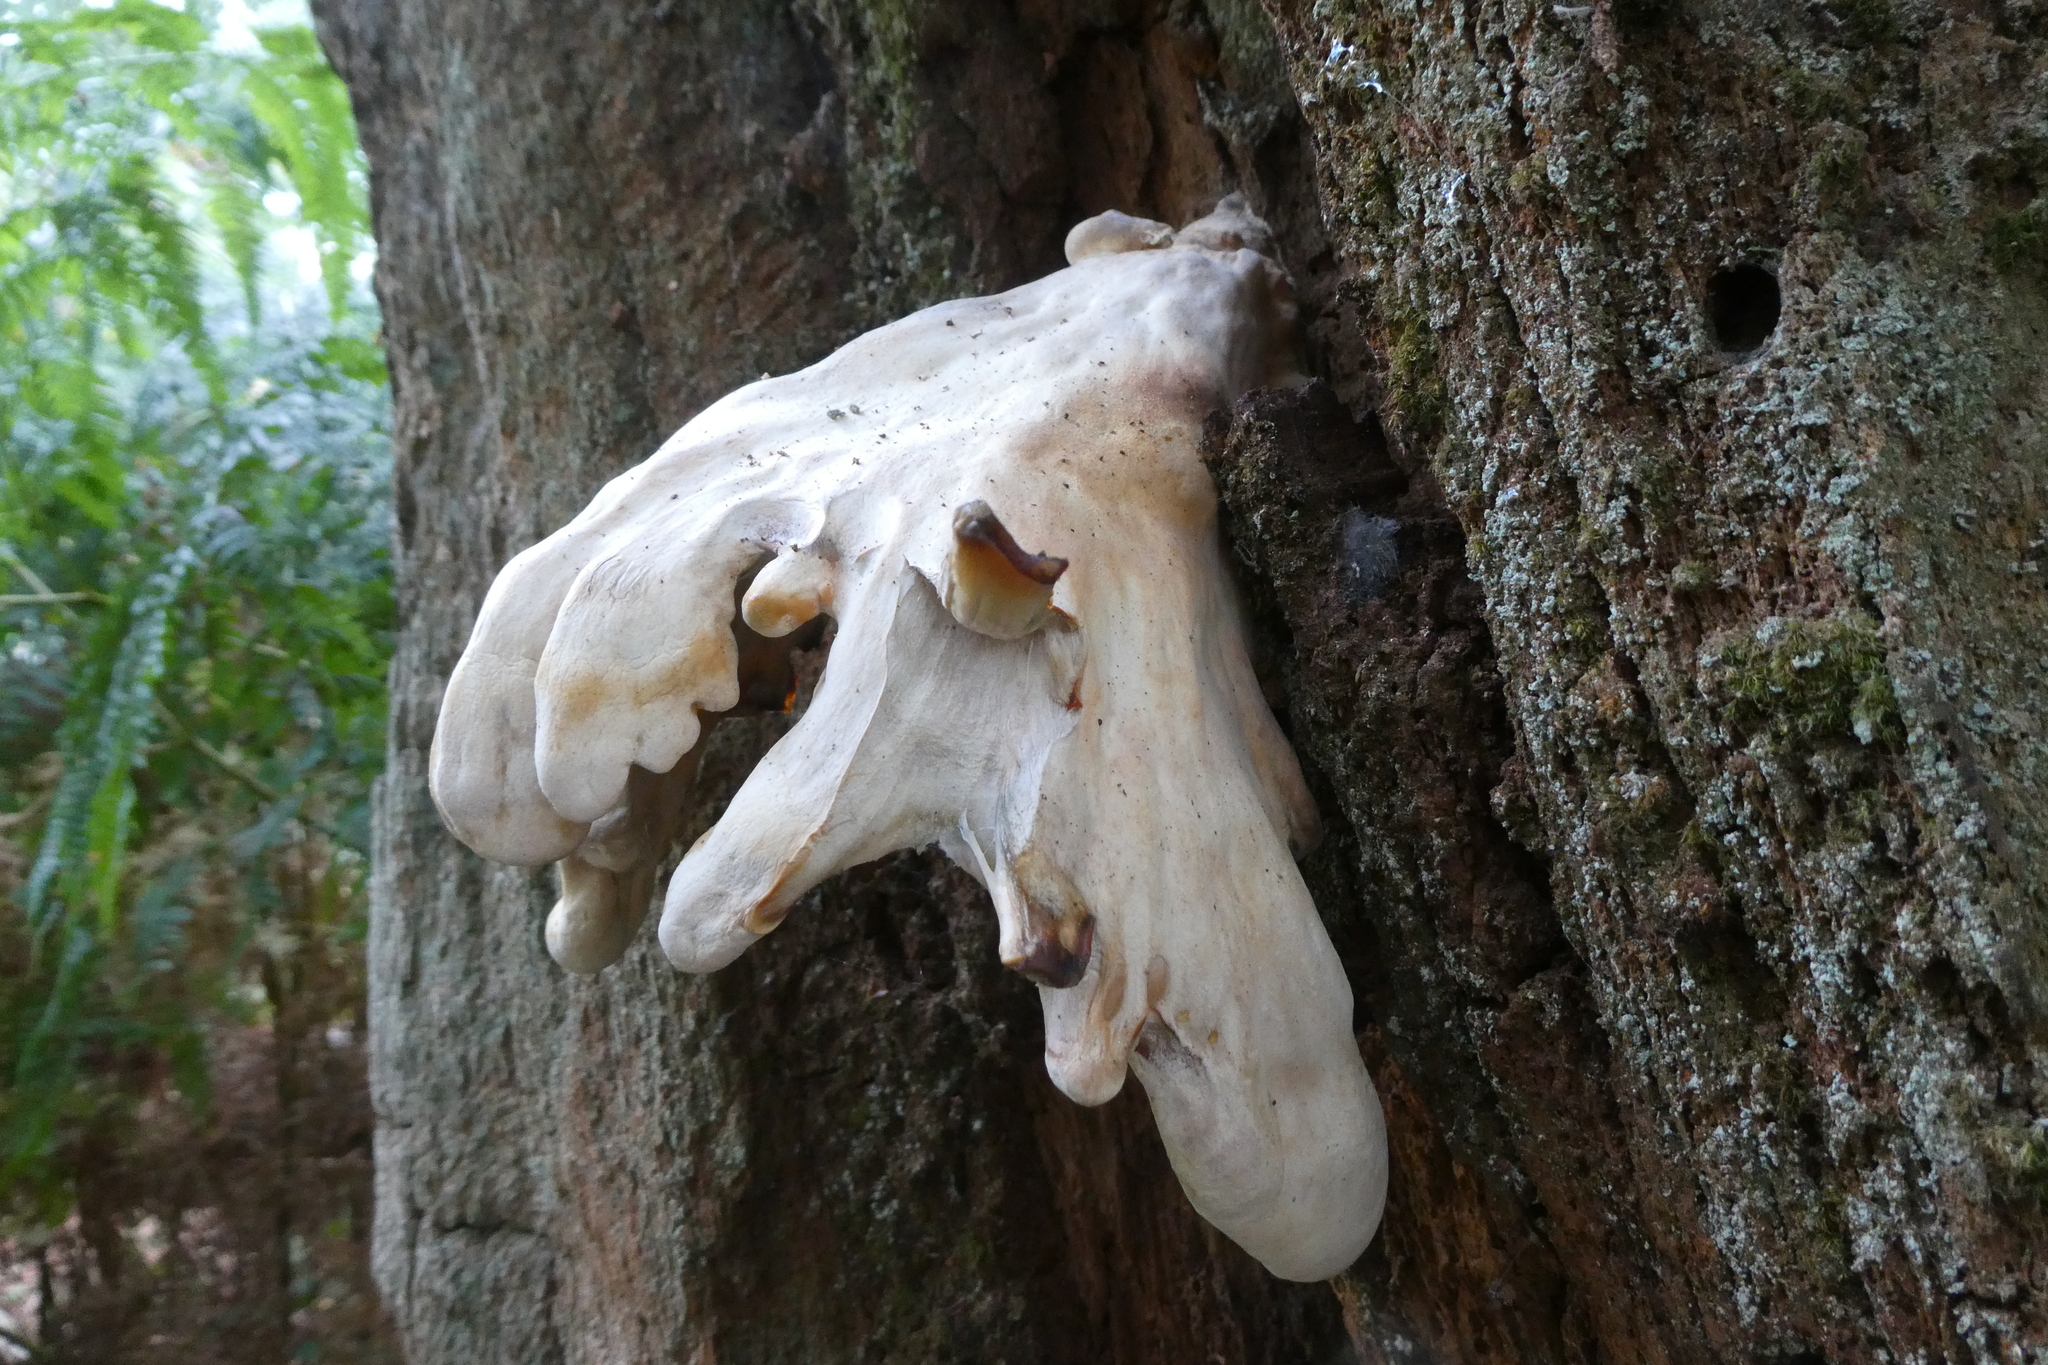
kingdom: Fungi
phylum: Basidiomycota
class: Agaricomycetes
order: Polyporales
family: Laetiporaceae
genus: Laetiporus
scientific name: Laetiporus sulphureus
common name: Chicken of the woods
